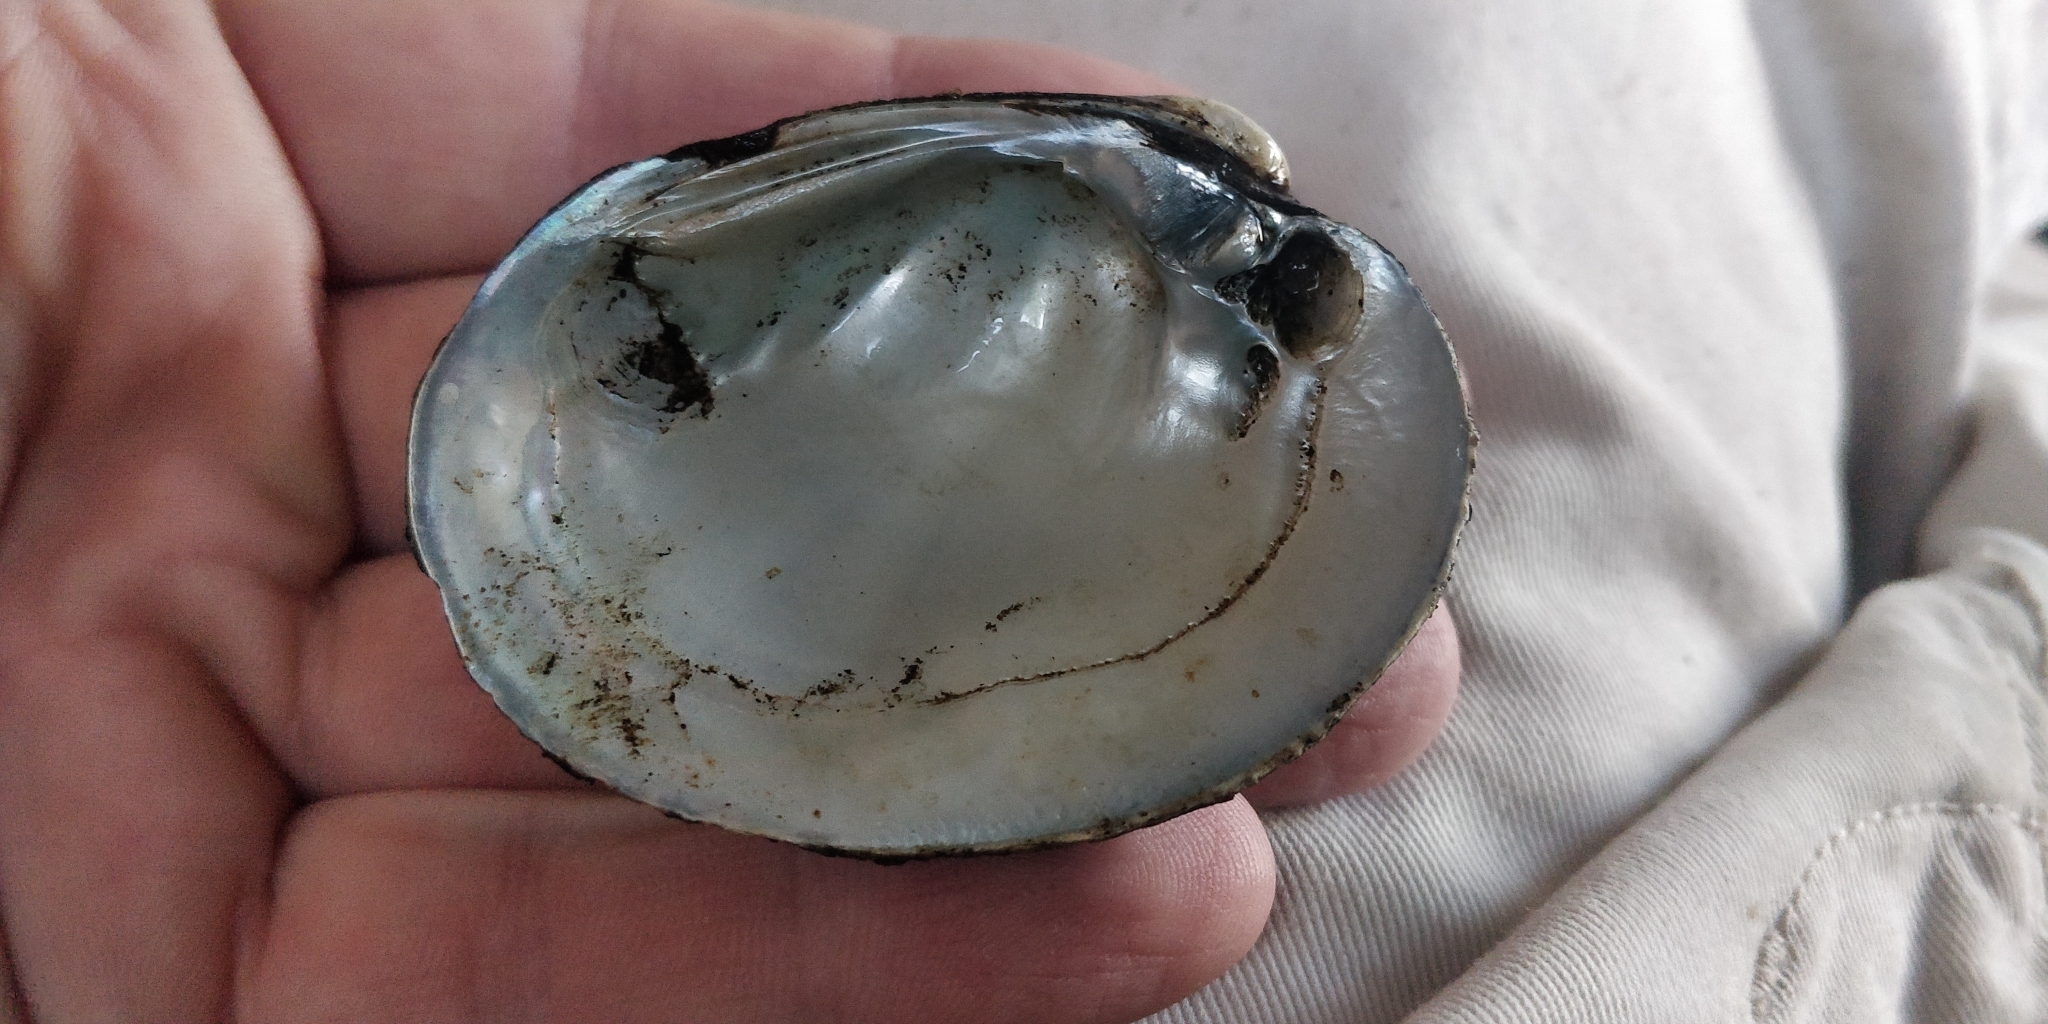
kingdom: Animalia
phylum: Mollusca
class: Bivalvia
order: Unionida
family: Unionidae
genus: Obovaria
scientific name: Obovaria olivaria
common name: Hickorynut
